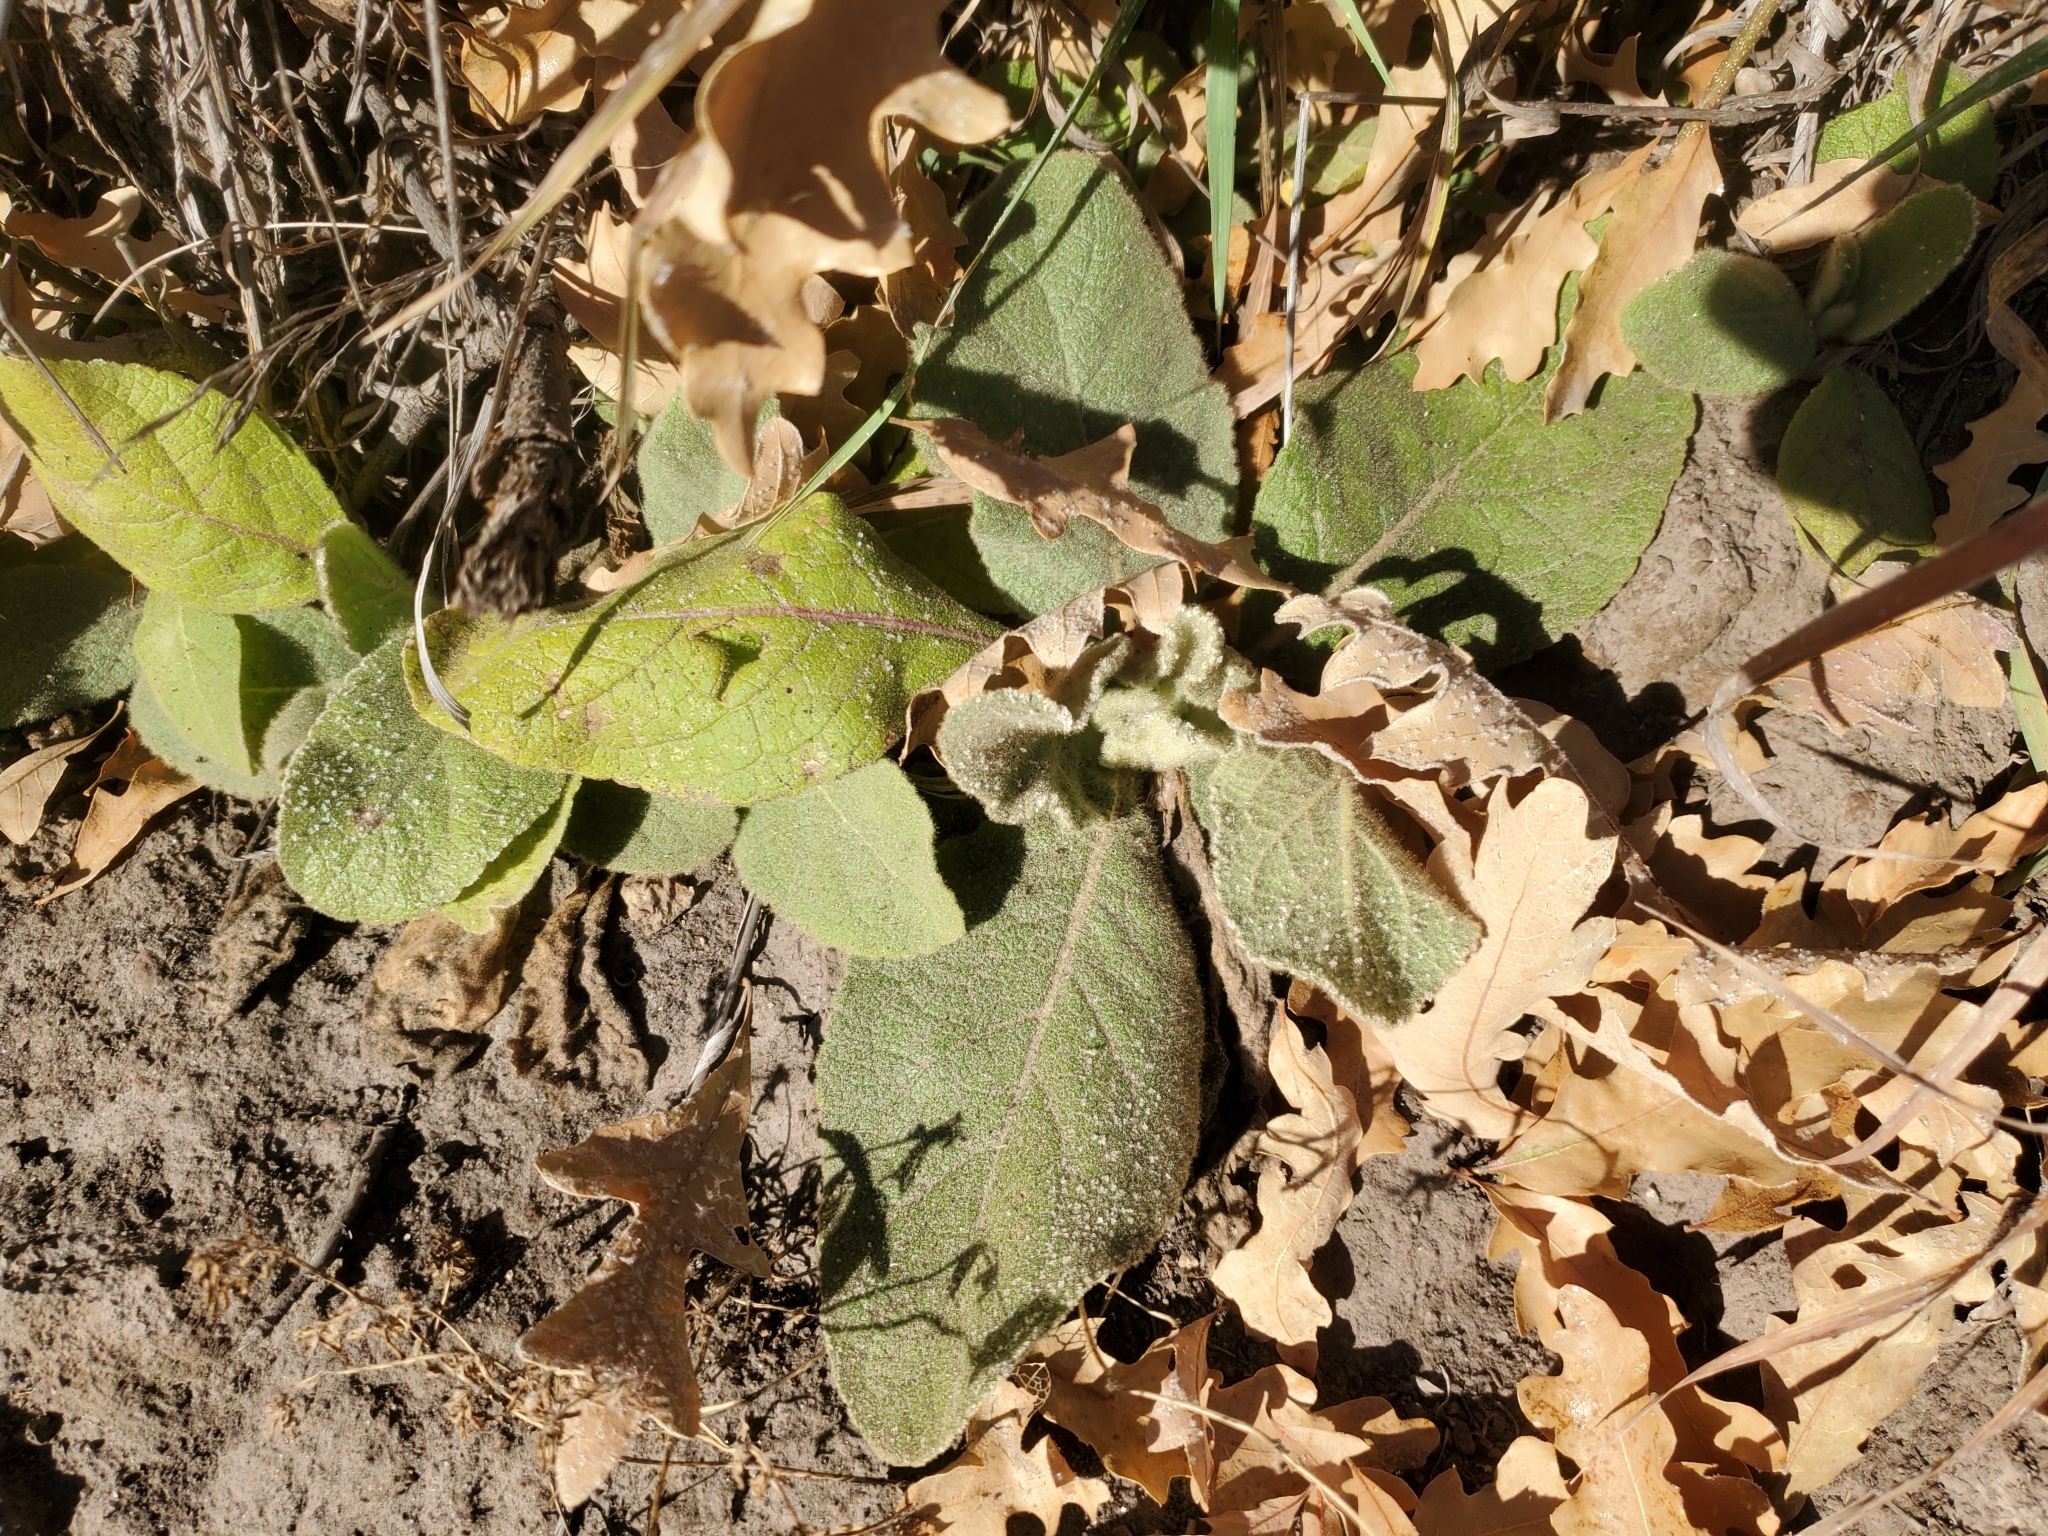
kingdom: Plantae
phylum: Tracheophyta
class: Magnoliopsida
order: Lamiales
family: Scrophulariaceae
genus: Verbascum
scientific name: Verbascum thapsus
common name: Common mullein
